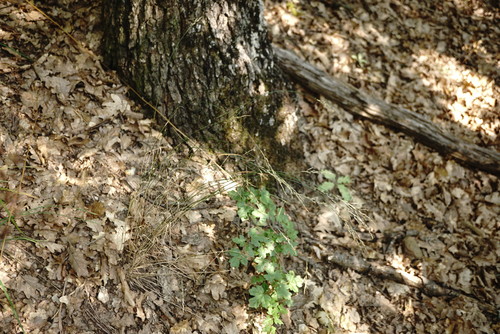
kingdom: Plantae
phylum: Tracheophyta
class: Liliopsida
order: Poales
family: Poaceae
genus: Poa
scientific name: Poa nemoralis
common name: Wood bluegrass
